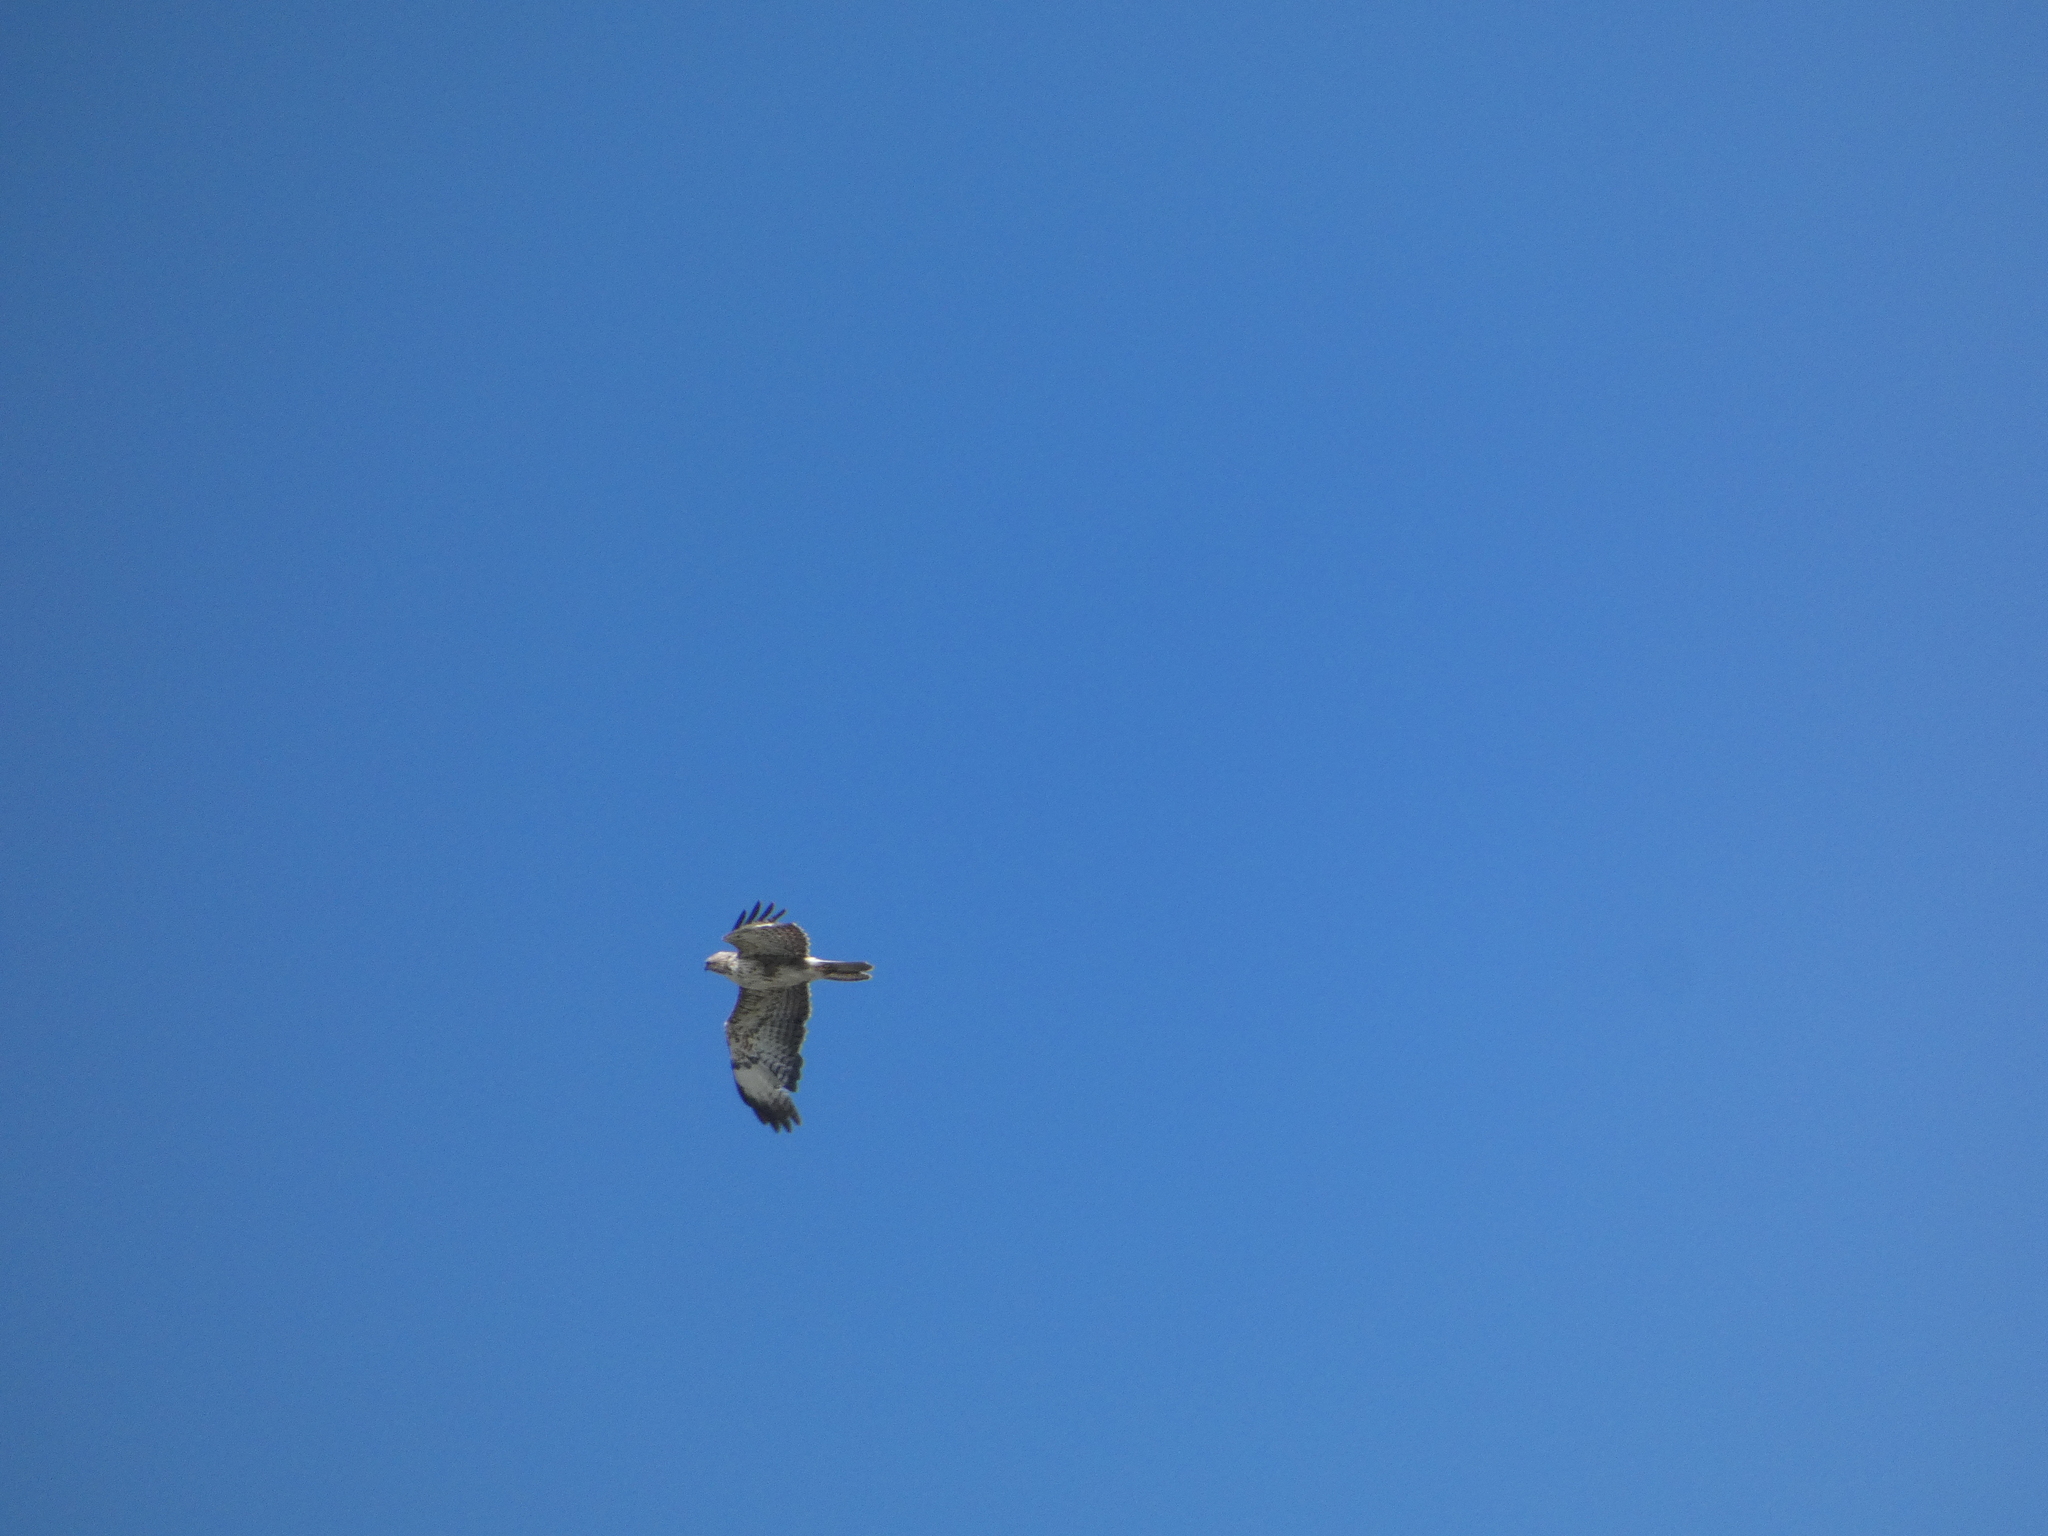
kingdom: Animalia
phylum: Chordata
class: Aves
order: Accipitriformes
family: Accipitridae
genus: Buteo
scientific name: Buteo buteo
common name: Common buzzard
